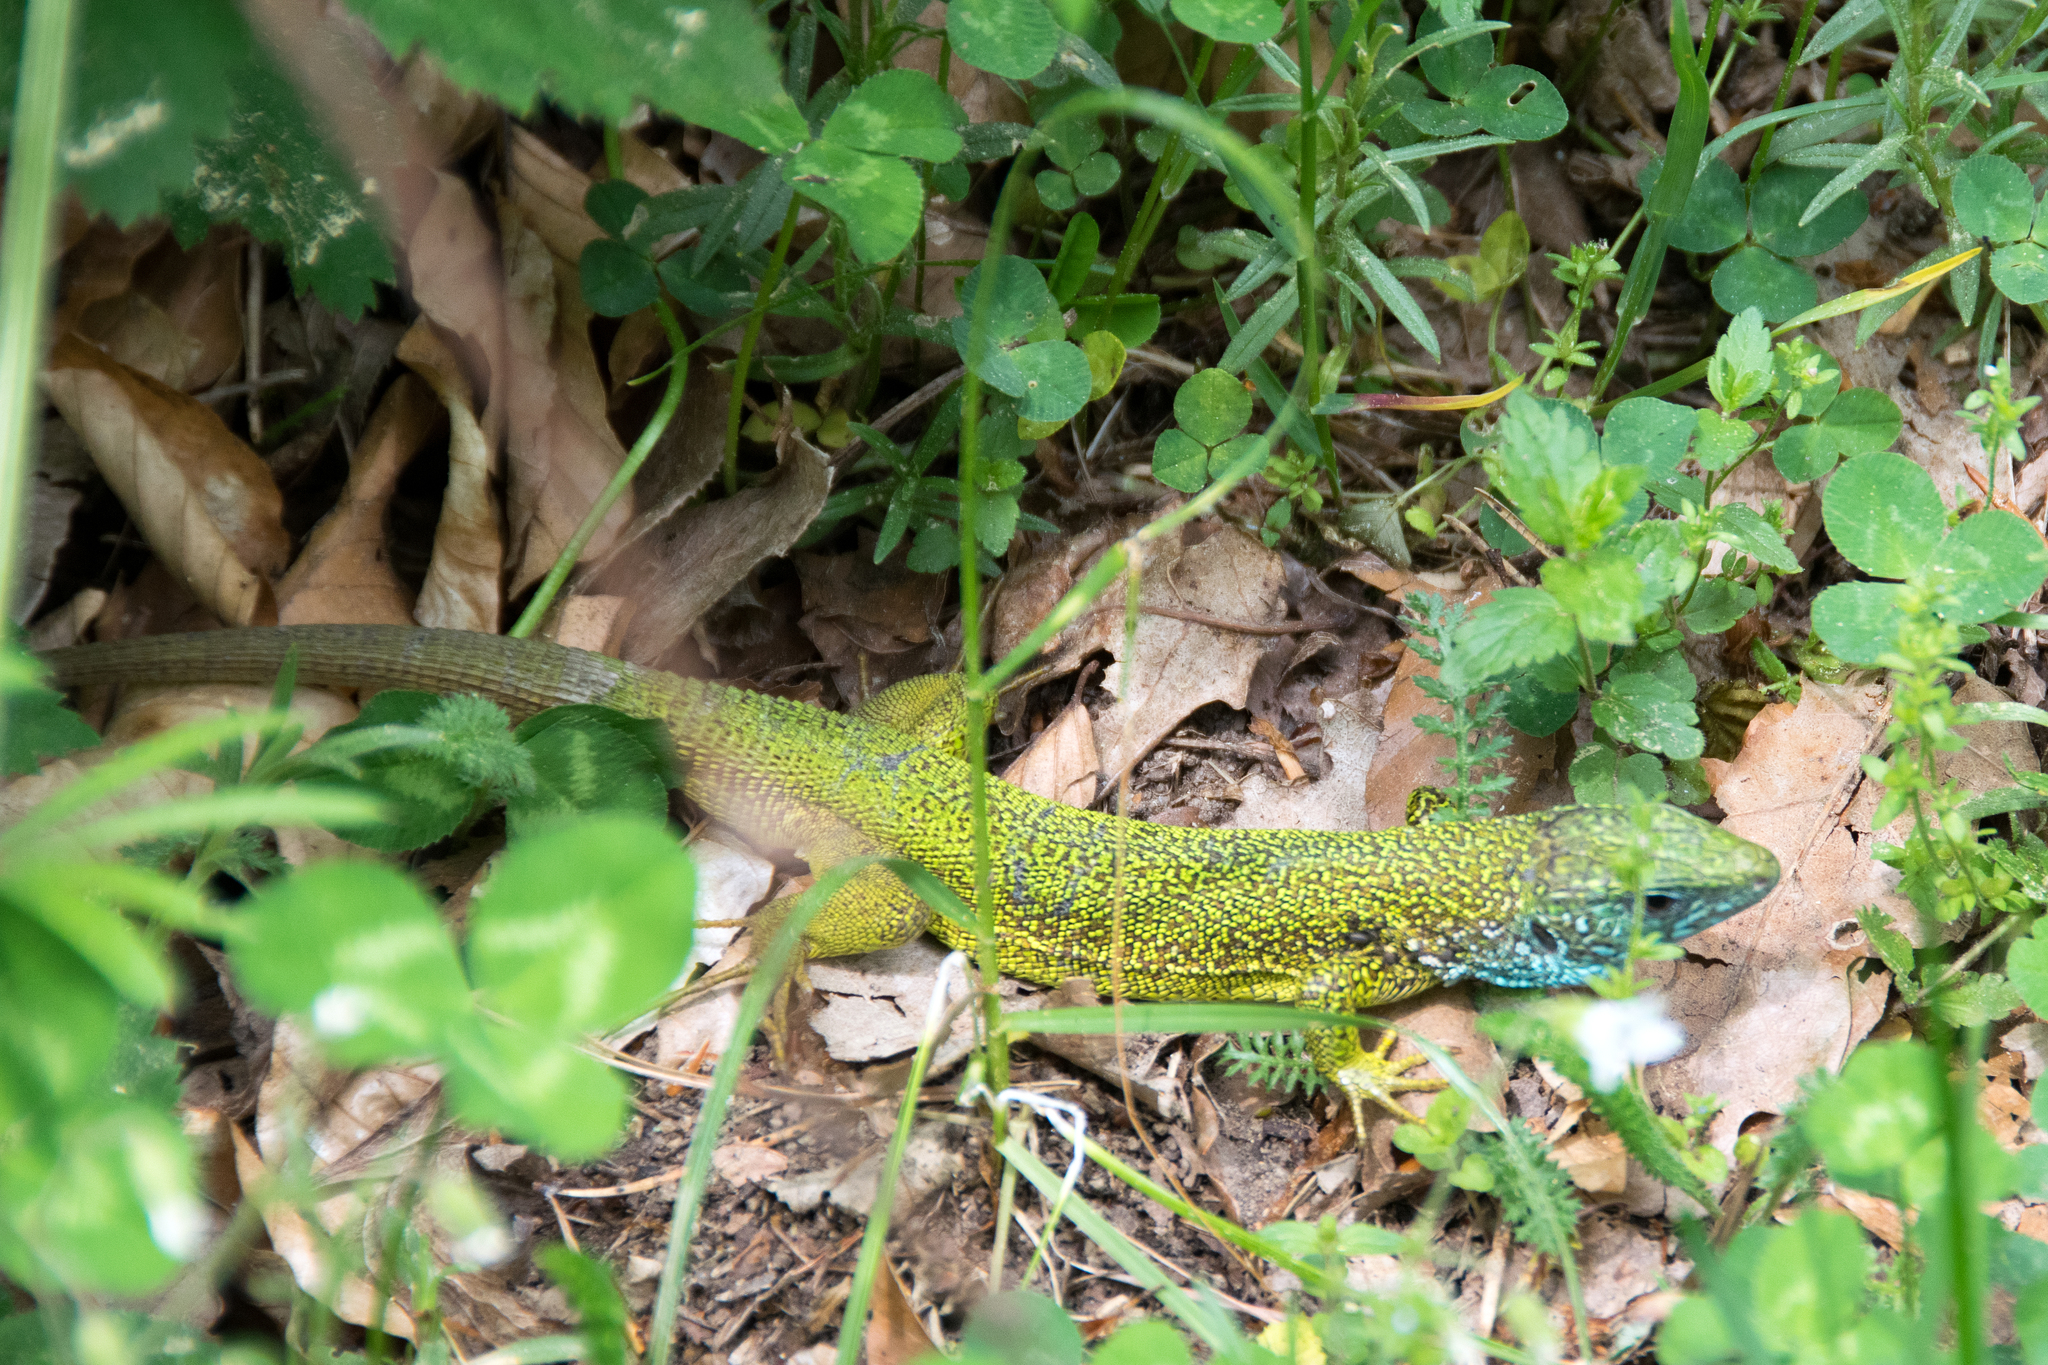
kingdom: Animalia
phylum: Chordata
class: Squamata
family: Lacertidae
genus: Lacerta
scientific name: Lacerta viridis
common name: European green lizard
